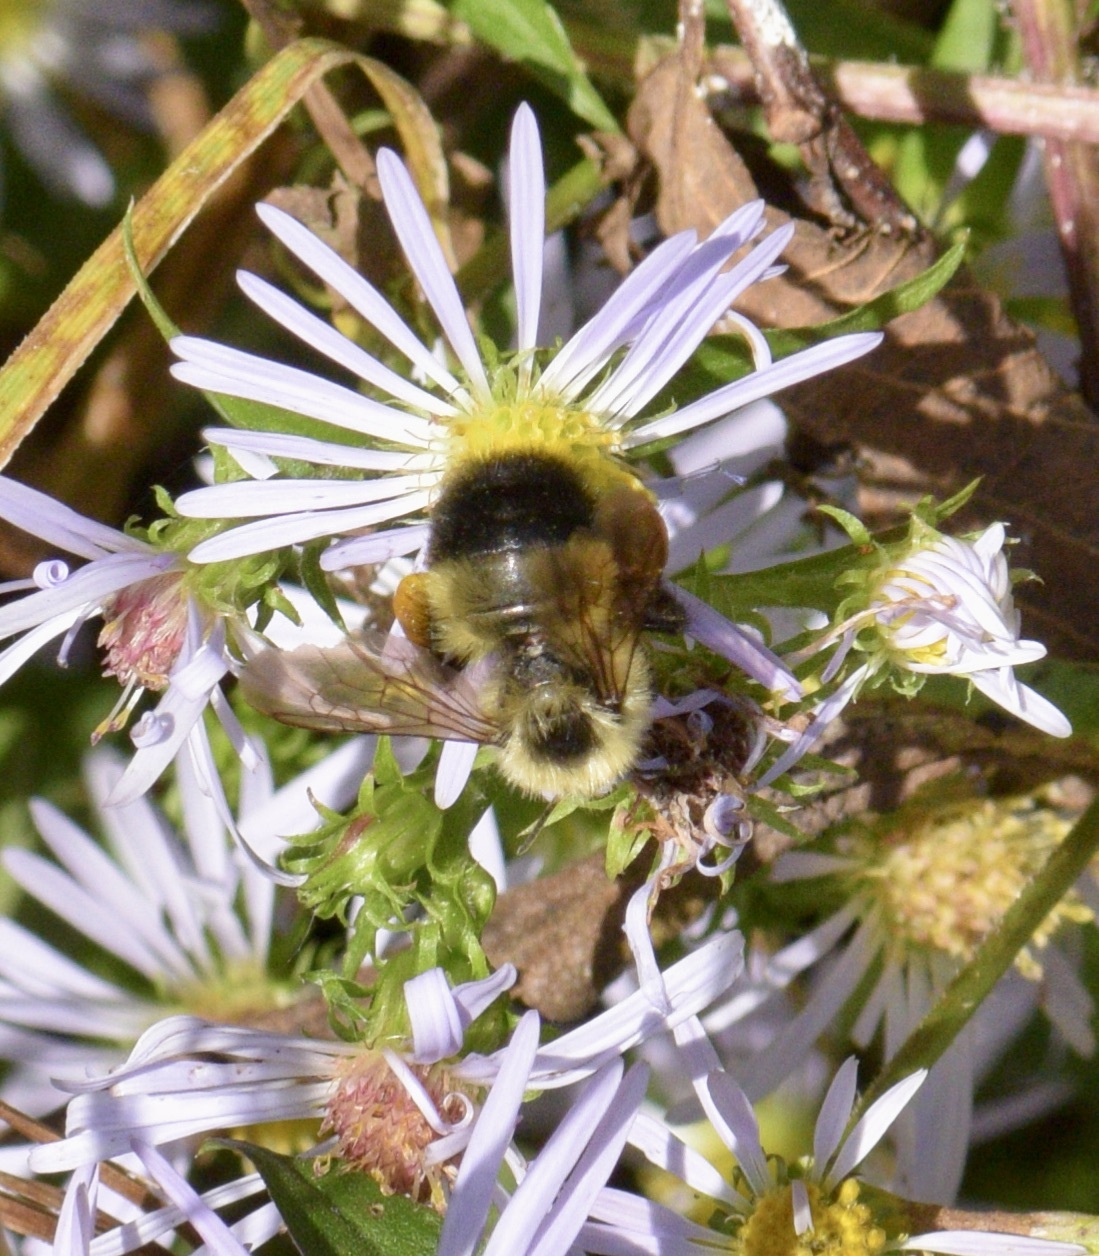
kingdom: Animalia
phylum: Arthropoda
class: Insecta
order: Hymenoptera
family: Apidae
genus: Pyrobombus
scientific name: Pyrobombus
